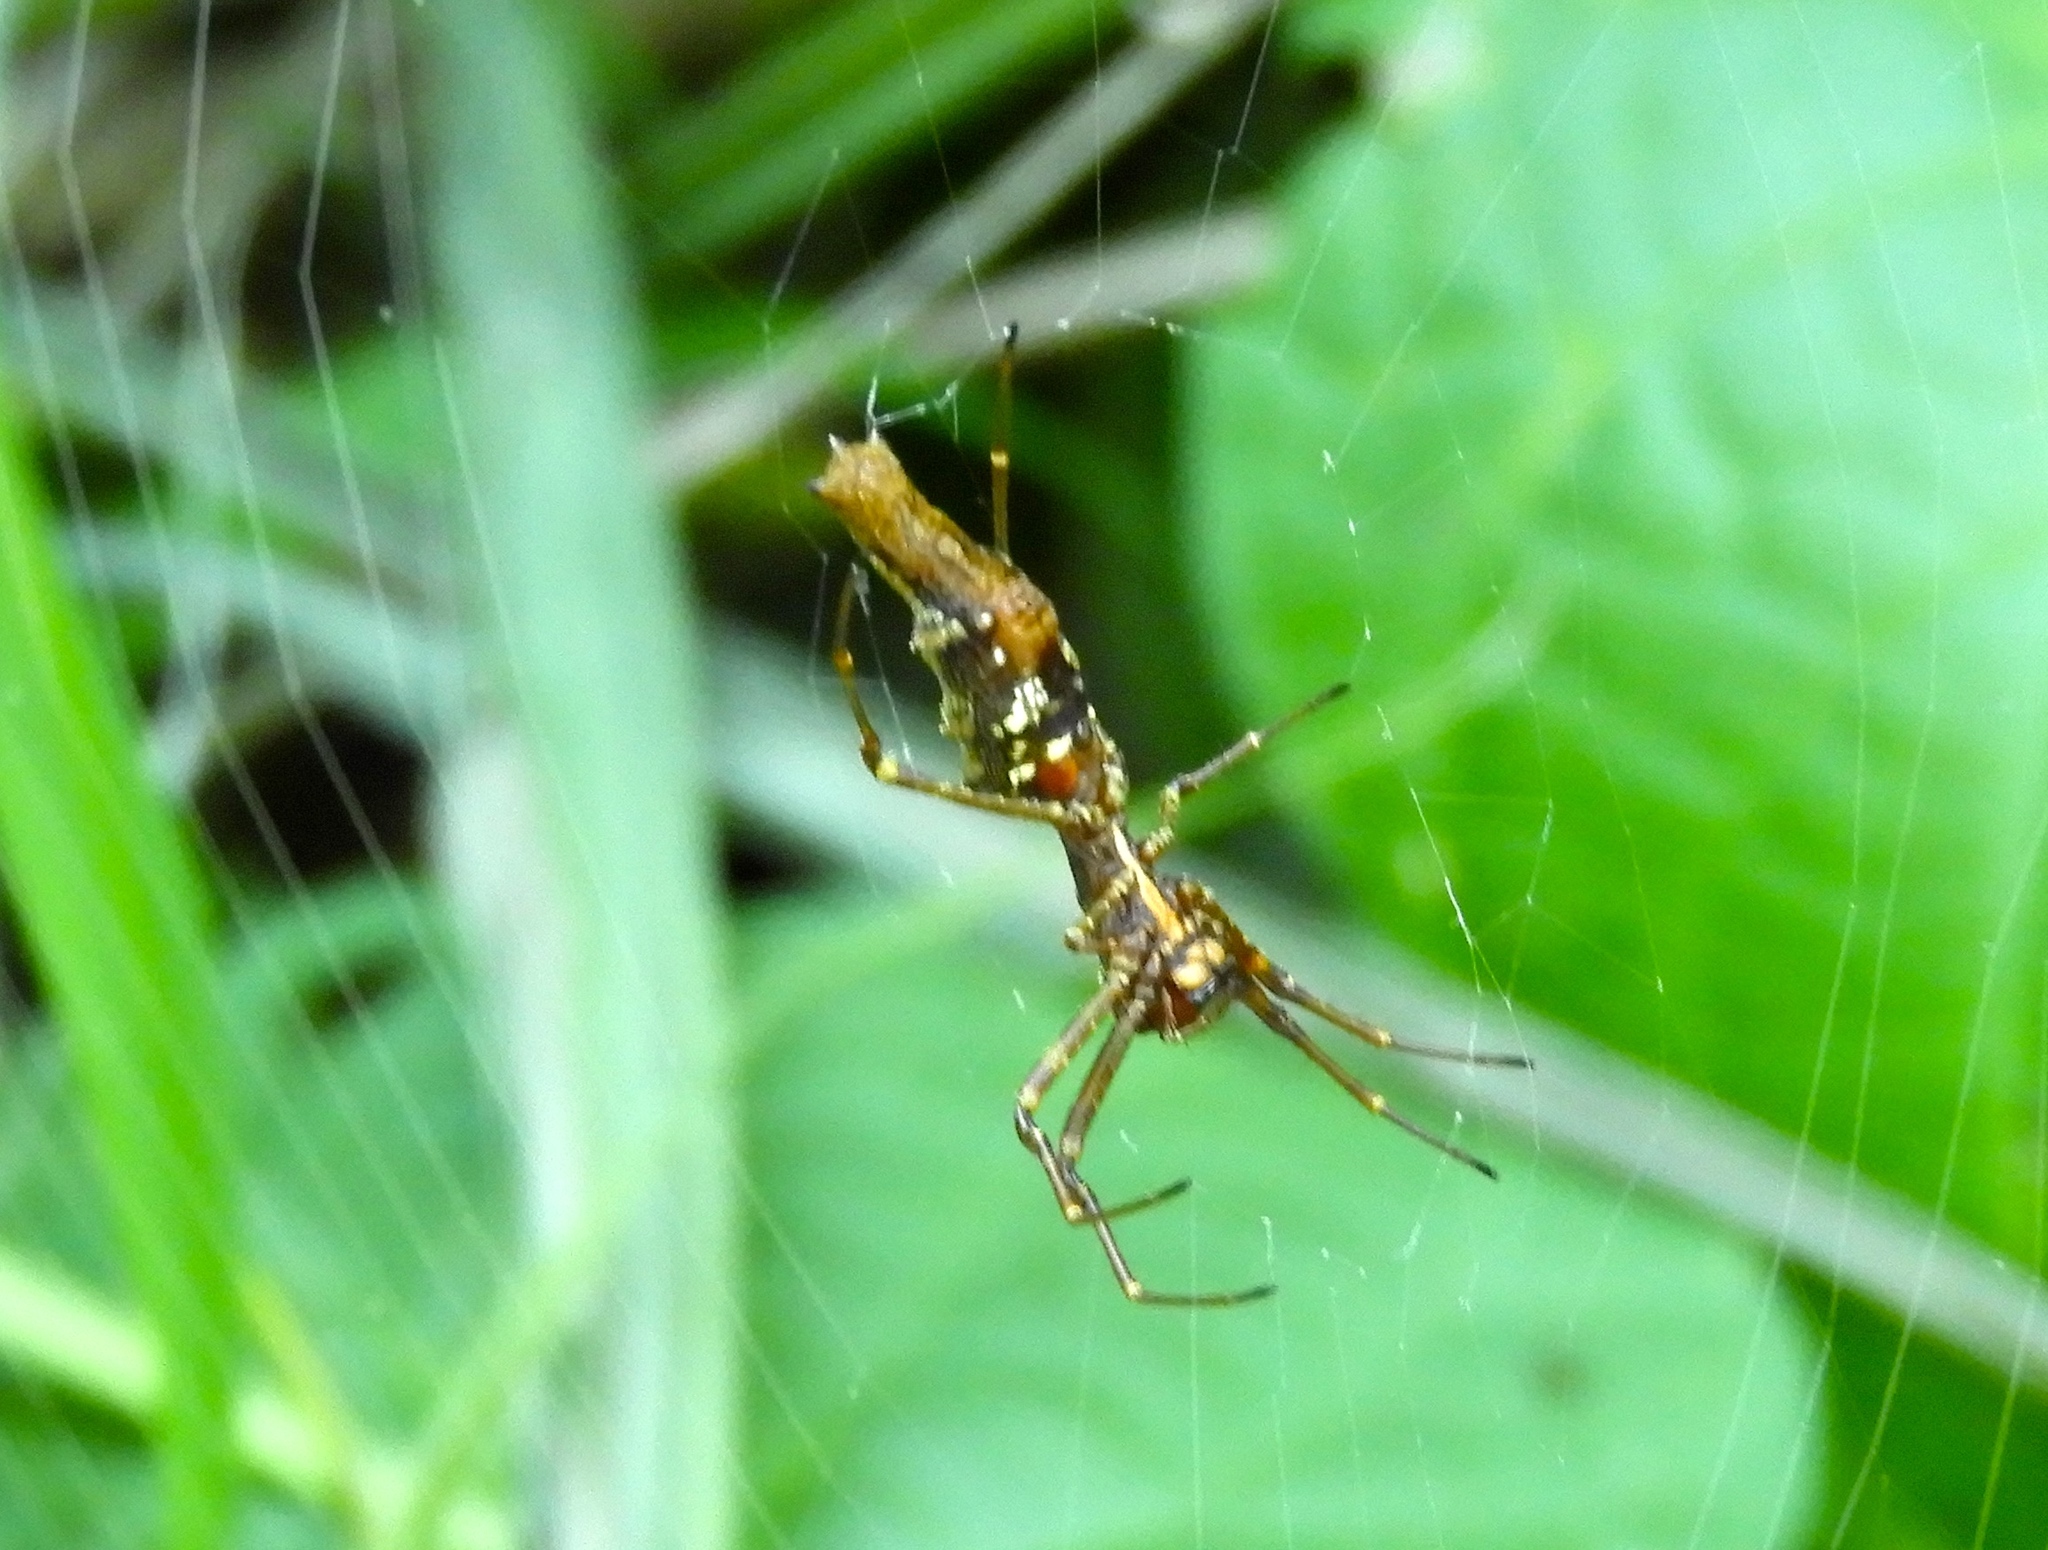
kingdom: Animalia
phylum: Arthropoda
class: Arachnida
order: Araneae
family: Araneidae
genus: Edricus
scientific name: Edricus productus
